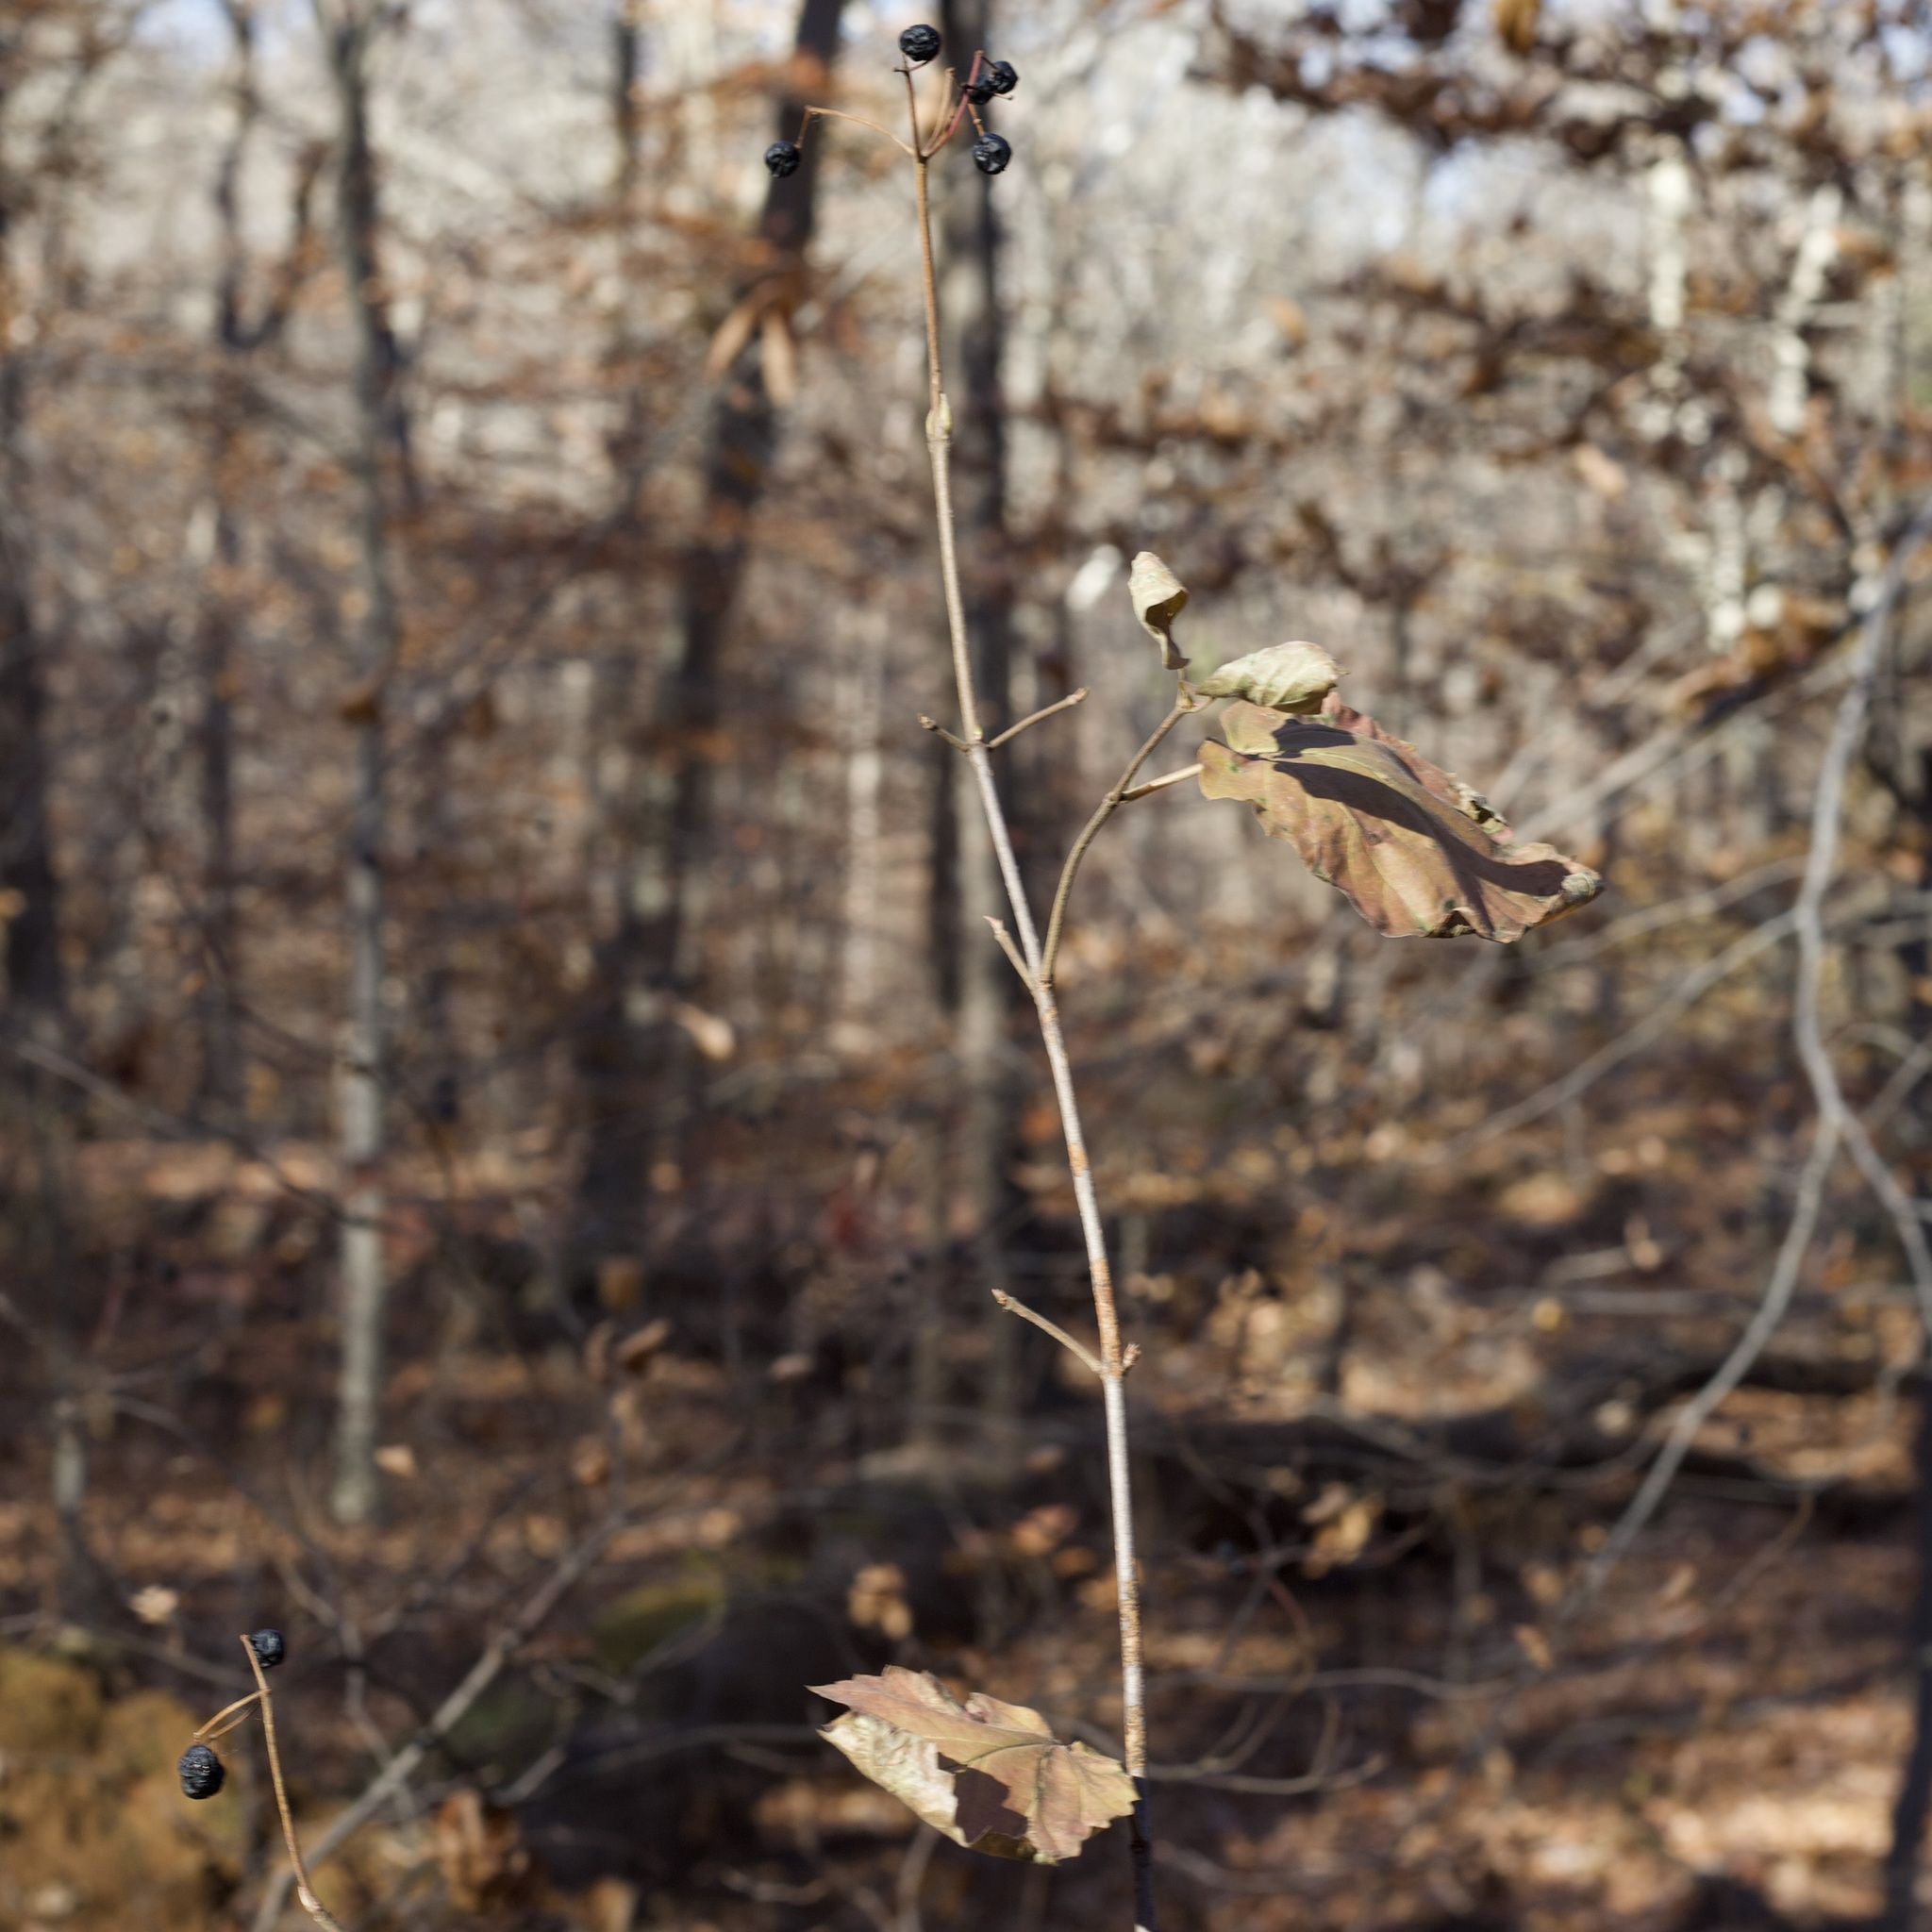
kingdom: Plantae
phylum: Tracheophyta
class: Magnoliopsida
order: Dipsacales
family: Viburnaceae
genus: Viburnum
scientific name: Viburnum acerifolium
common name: Dockmackie
